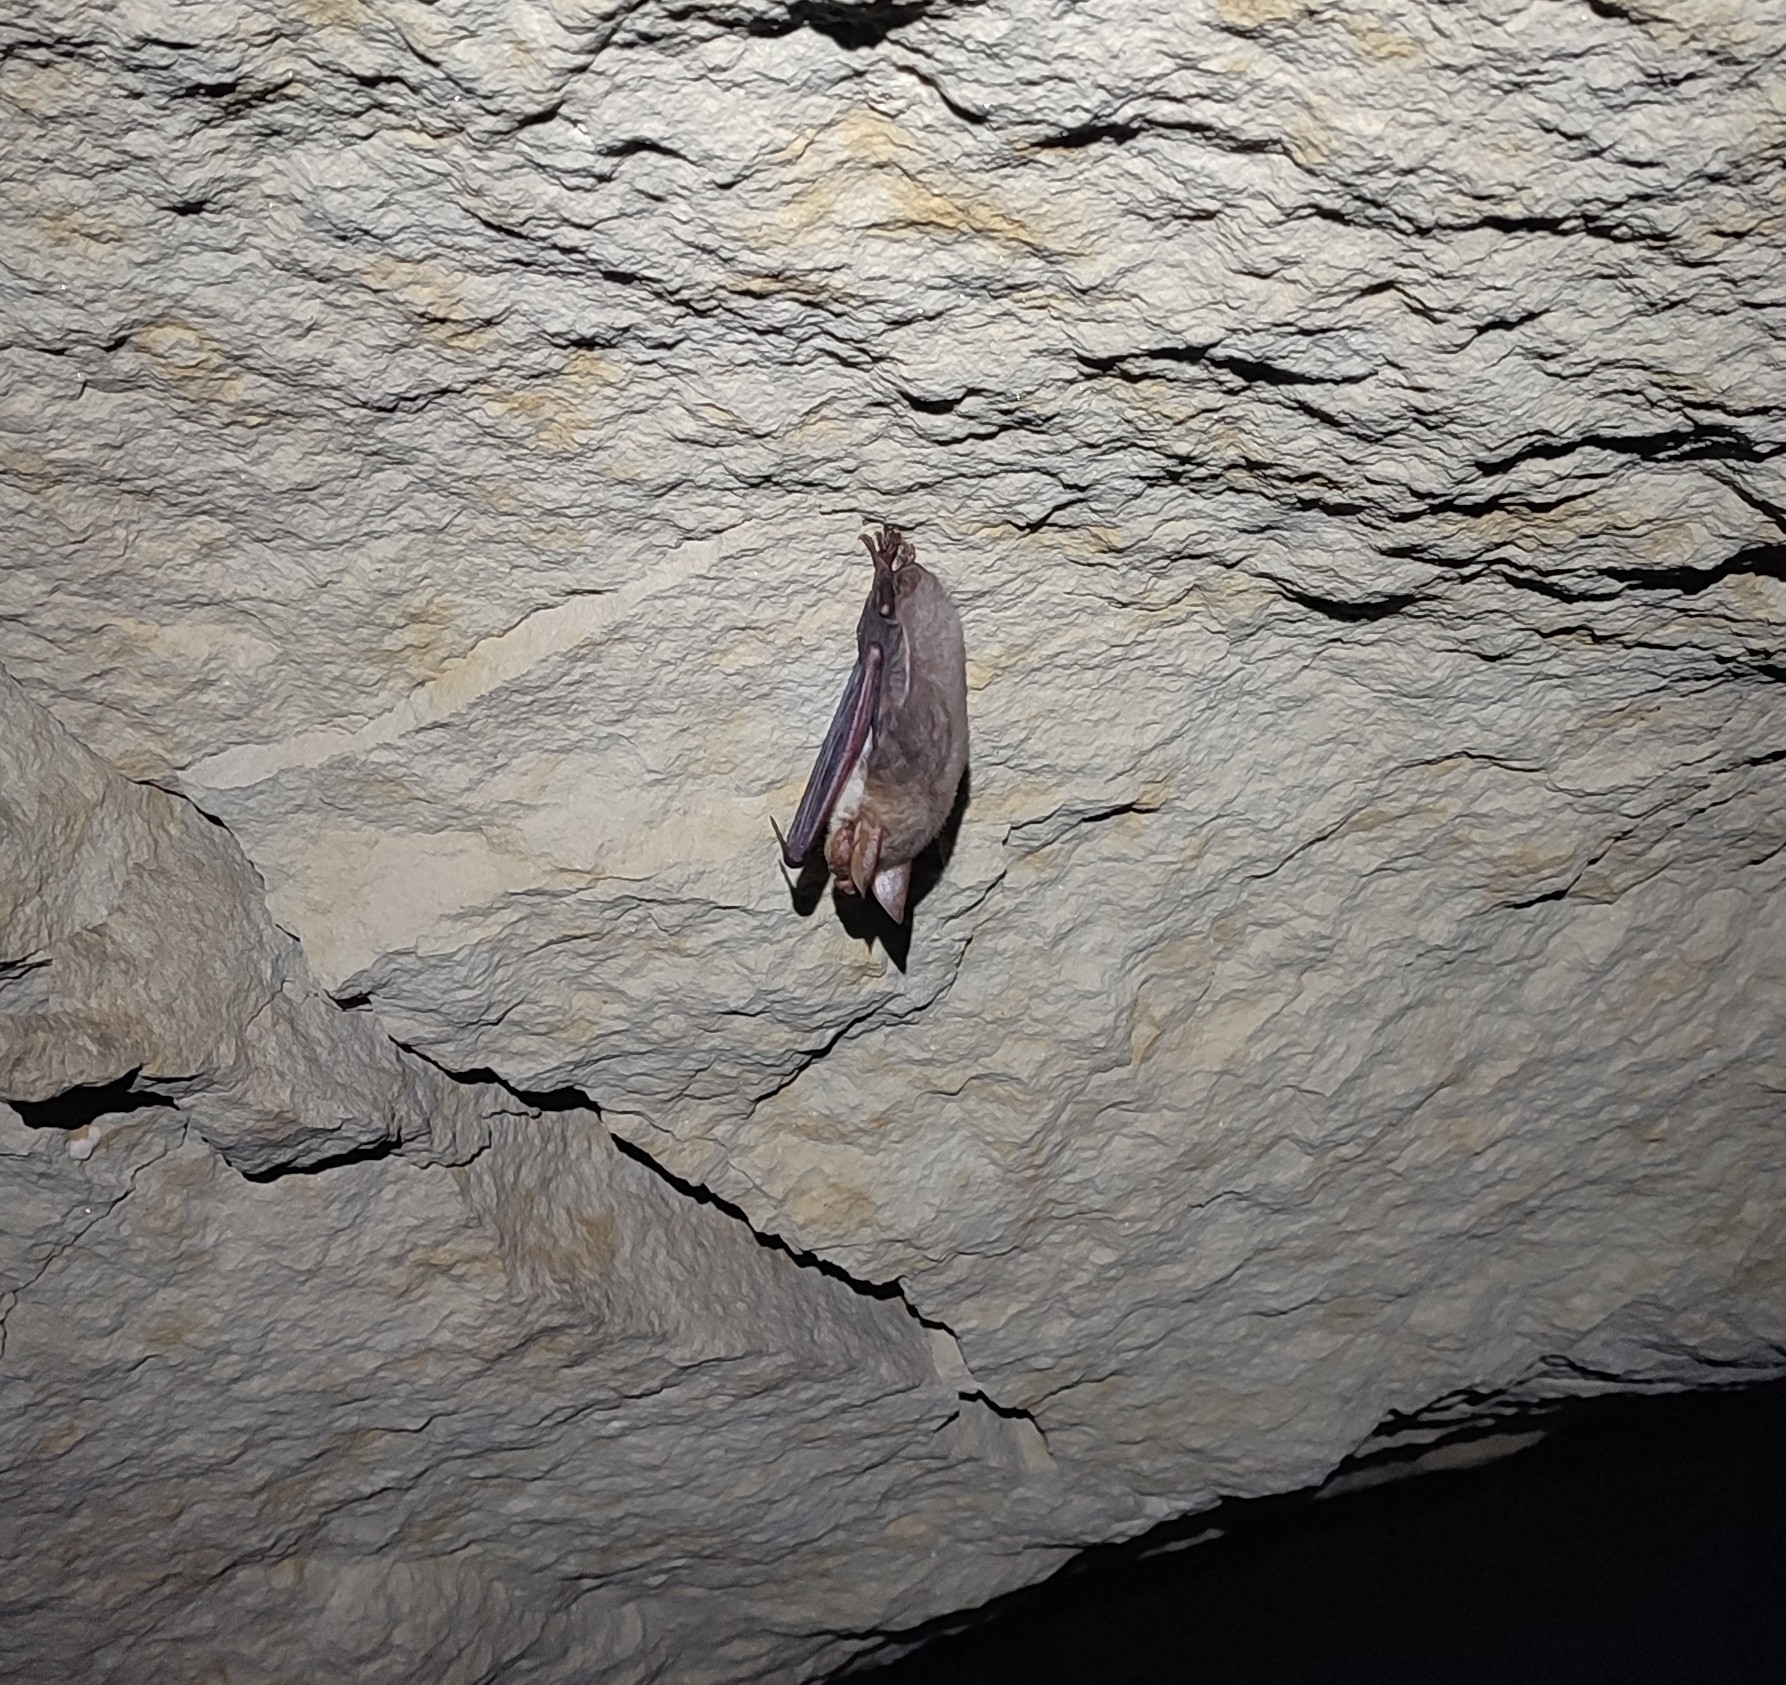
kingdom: Animalia
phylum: Chordata
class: Mammalia
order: Chiroptera
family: Vespertilionidae
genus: Myotis
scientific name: Myotis myotis
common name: Greater mouse-eared bat
